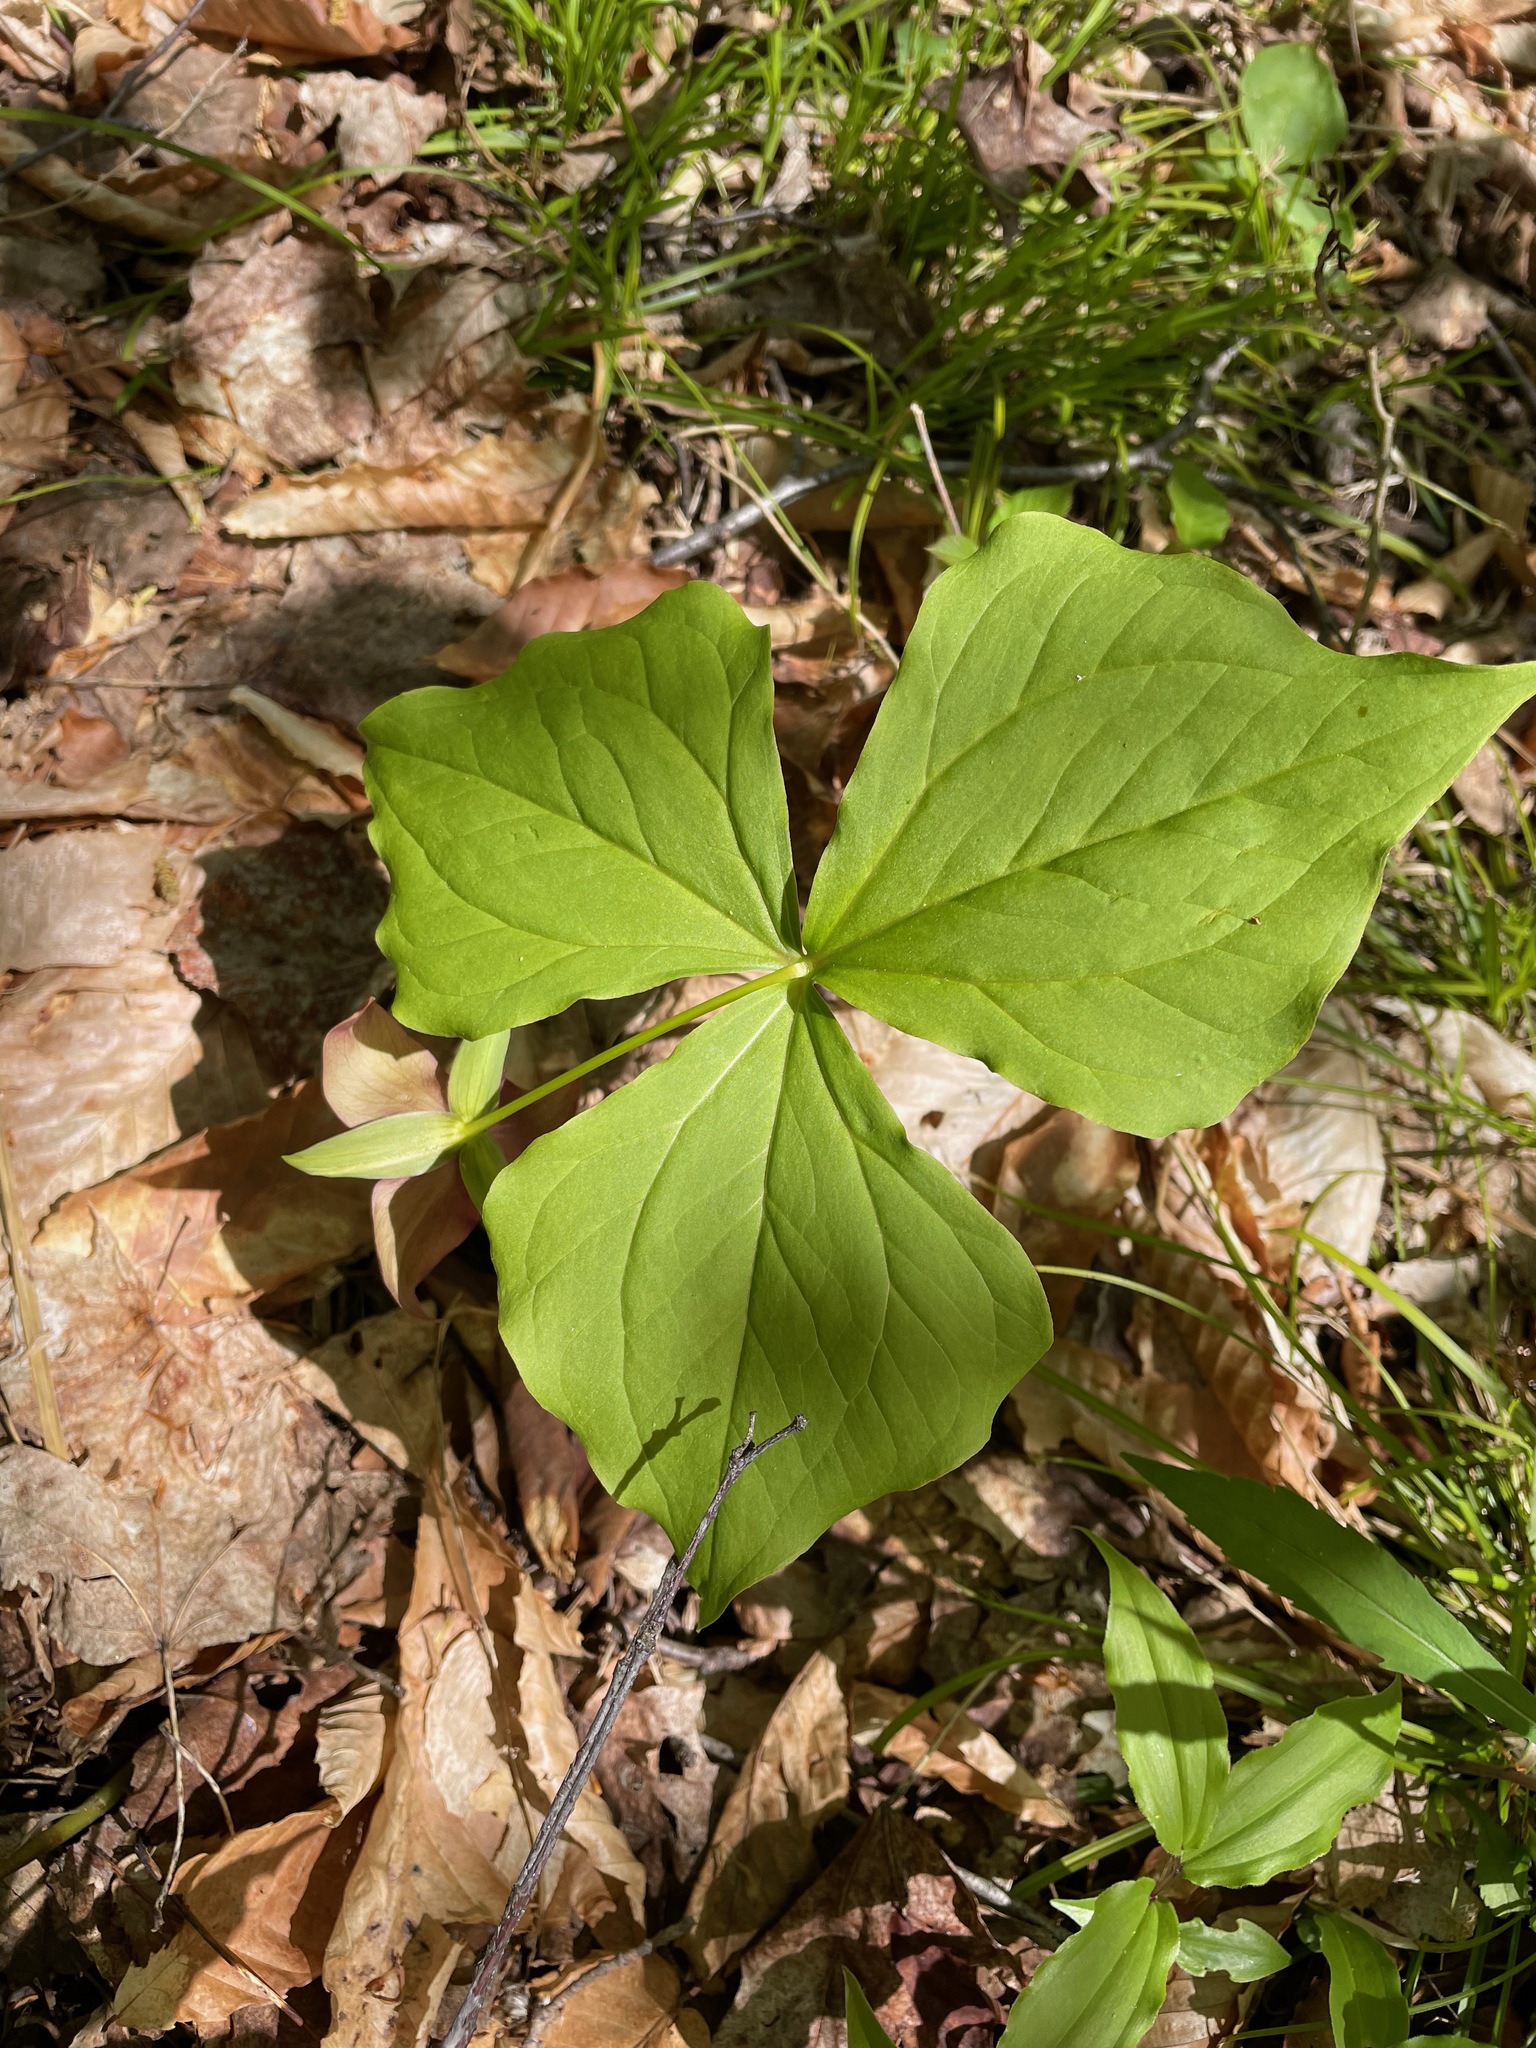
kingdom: Plantae
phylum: Tracheophyta
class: Liliopsida
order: Liliales
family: Melanthiaceae
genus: Trillium
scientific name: Trillium erectum
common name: Purple trillium
